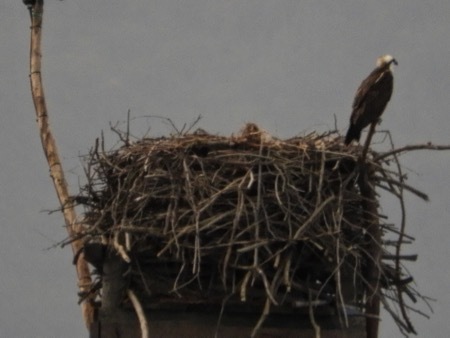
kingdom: Animalia
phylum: Chordata
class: Aves
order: Accipitriformes
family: Pandionidae
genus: Pandion
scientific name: Pandion haliaetus
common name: Osprey
